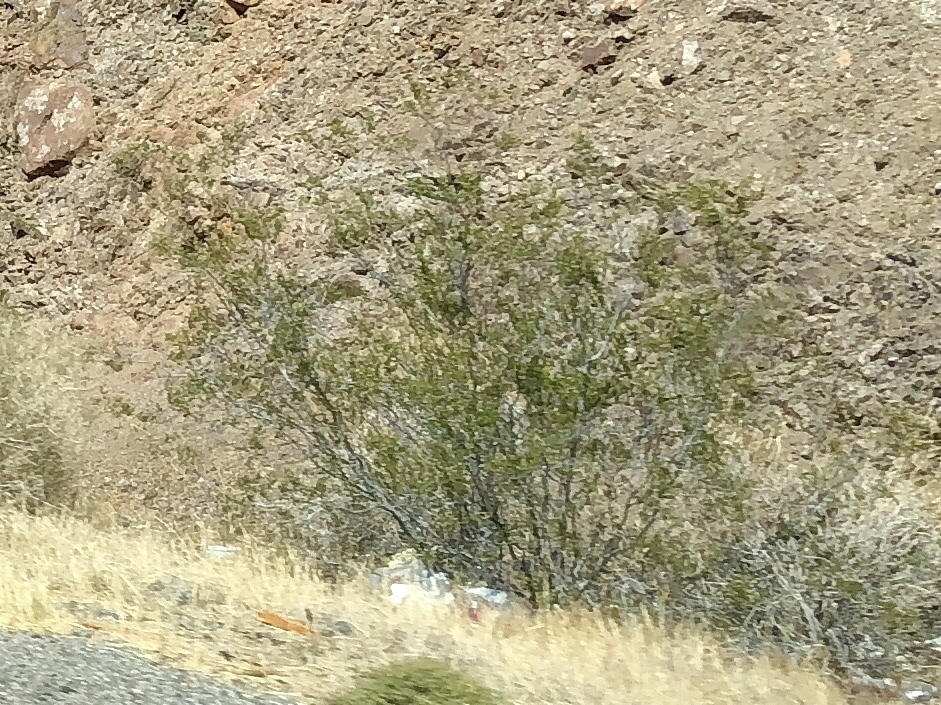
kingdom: Plantae
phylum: Tracheophyta
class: Magnoliopsida
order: Zygophyllales
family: Zygophyllaceae
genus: Larrea
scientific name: Larrea tridentata
